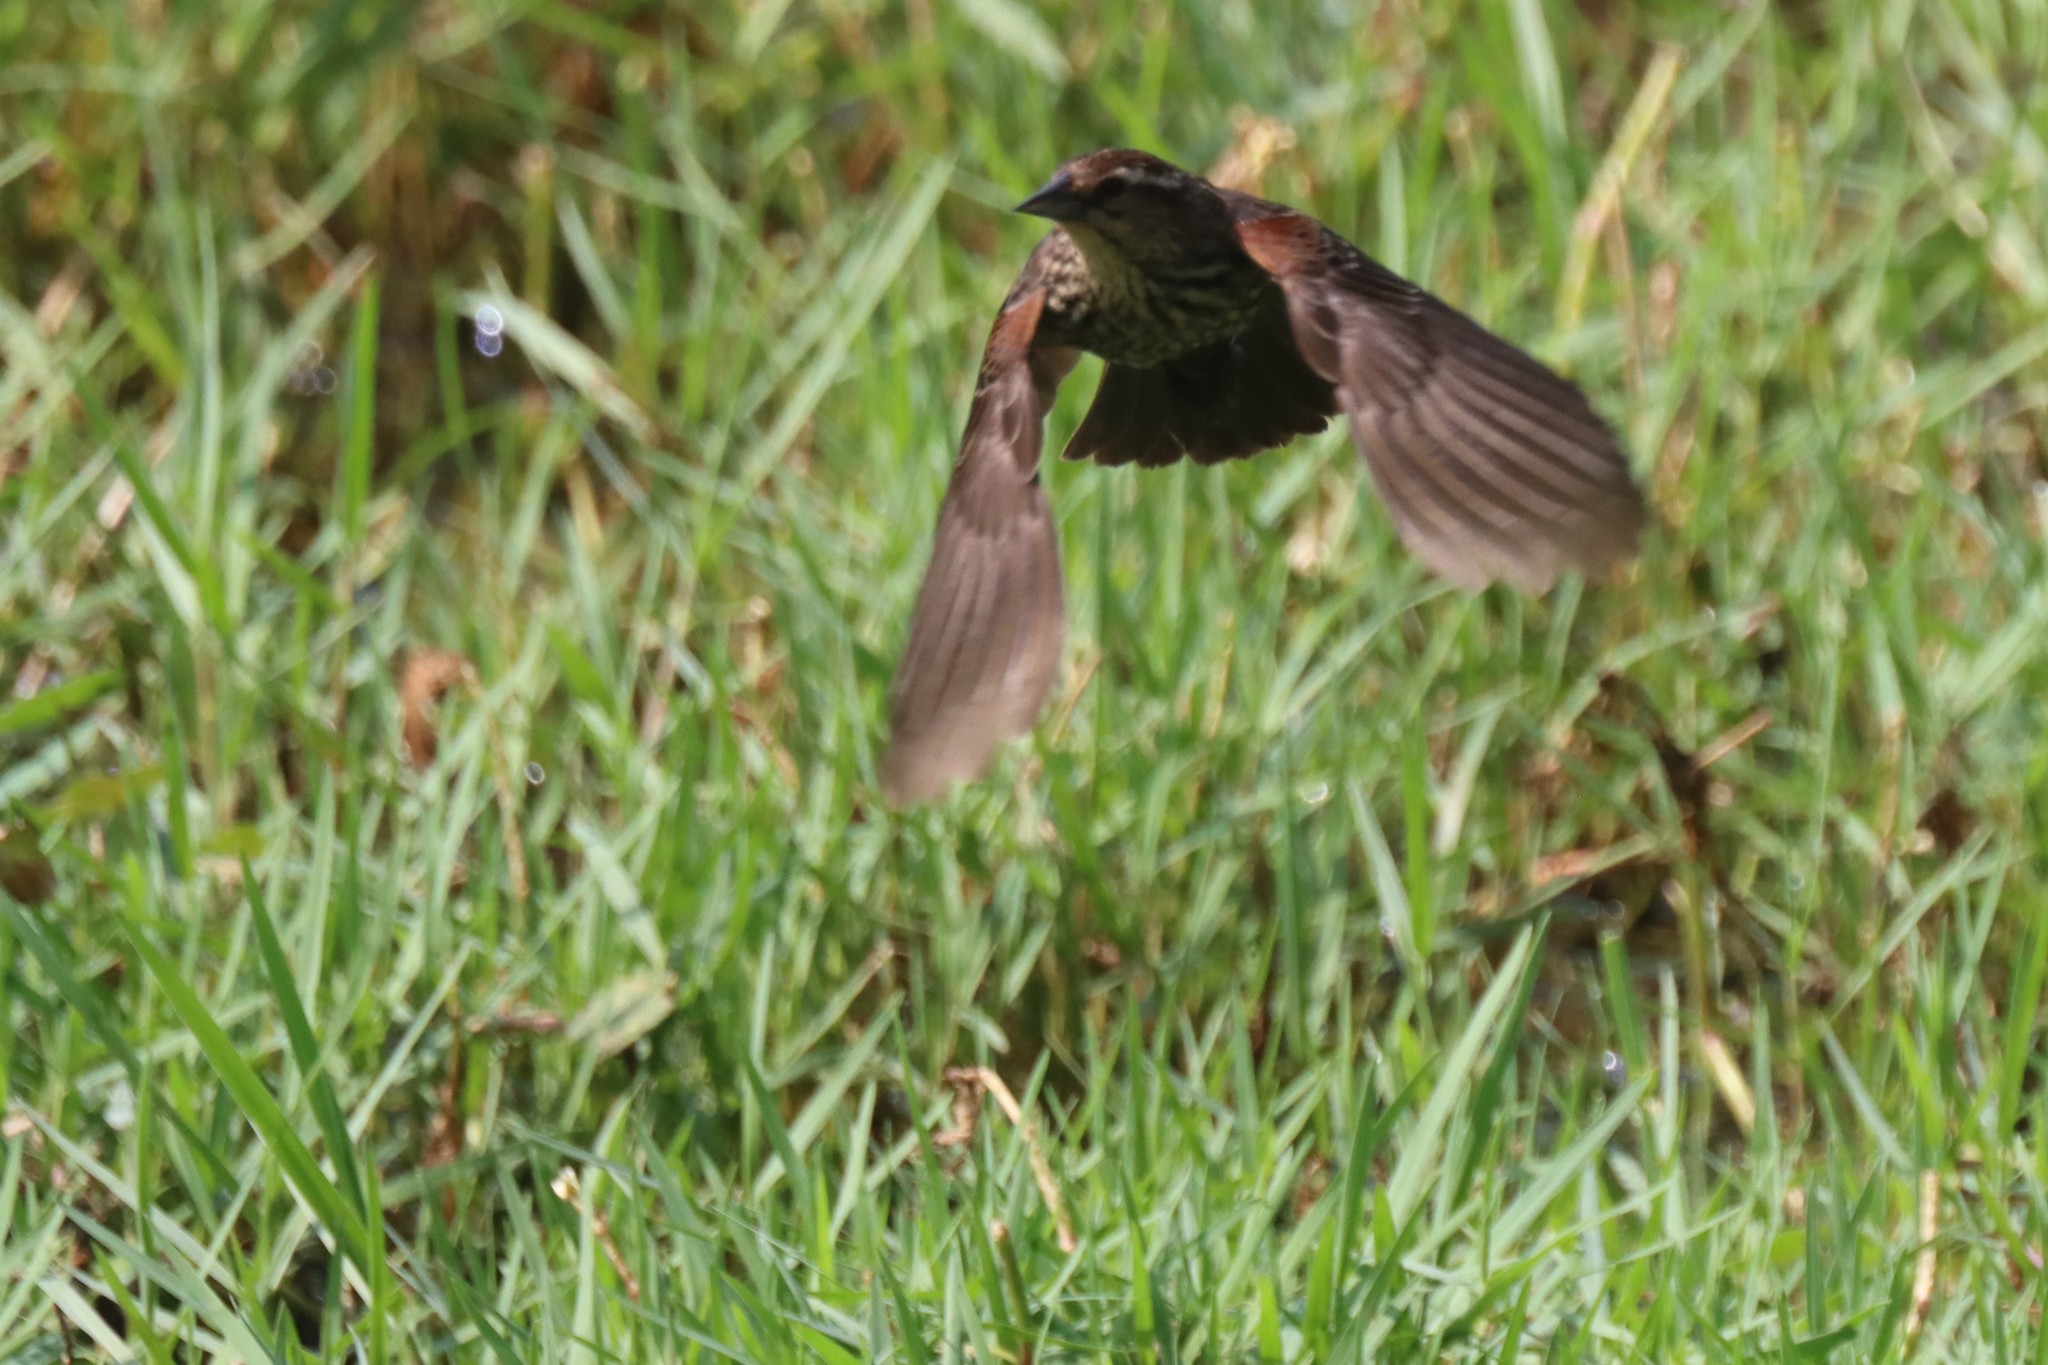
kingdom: Animalia
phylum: Chordata
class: Aves
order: Passeriformes
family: Icteridae
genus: Agelaius
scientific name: Agelaius phoeniceus
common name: Red-winged blackbird
